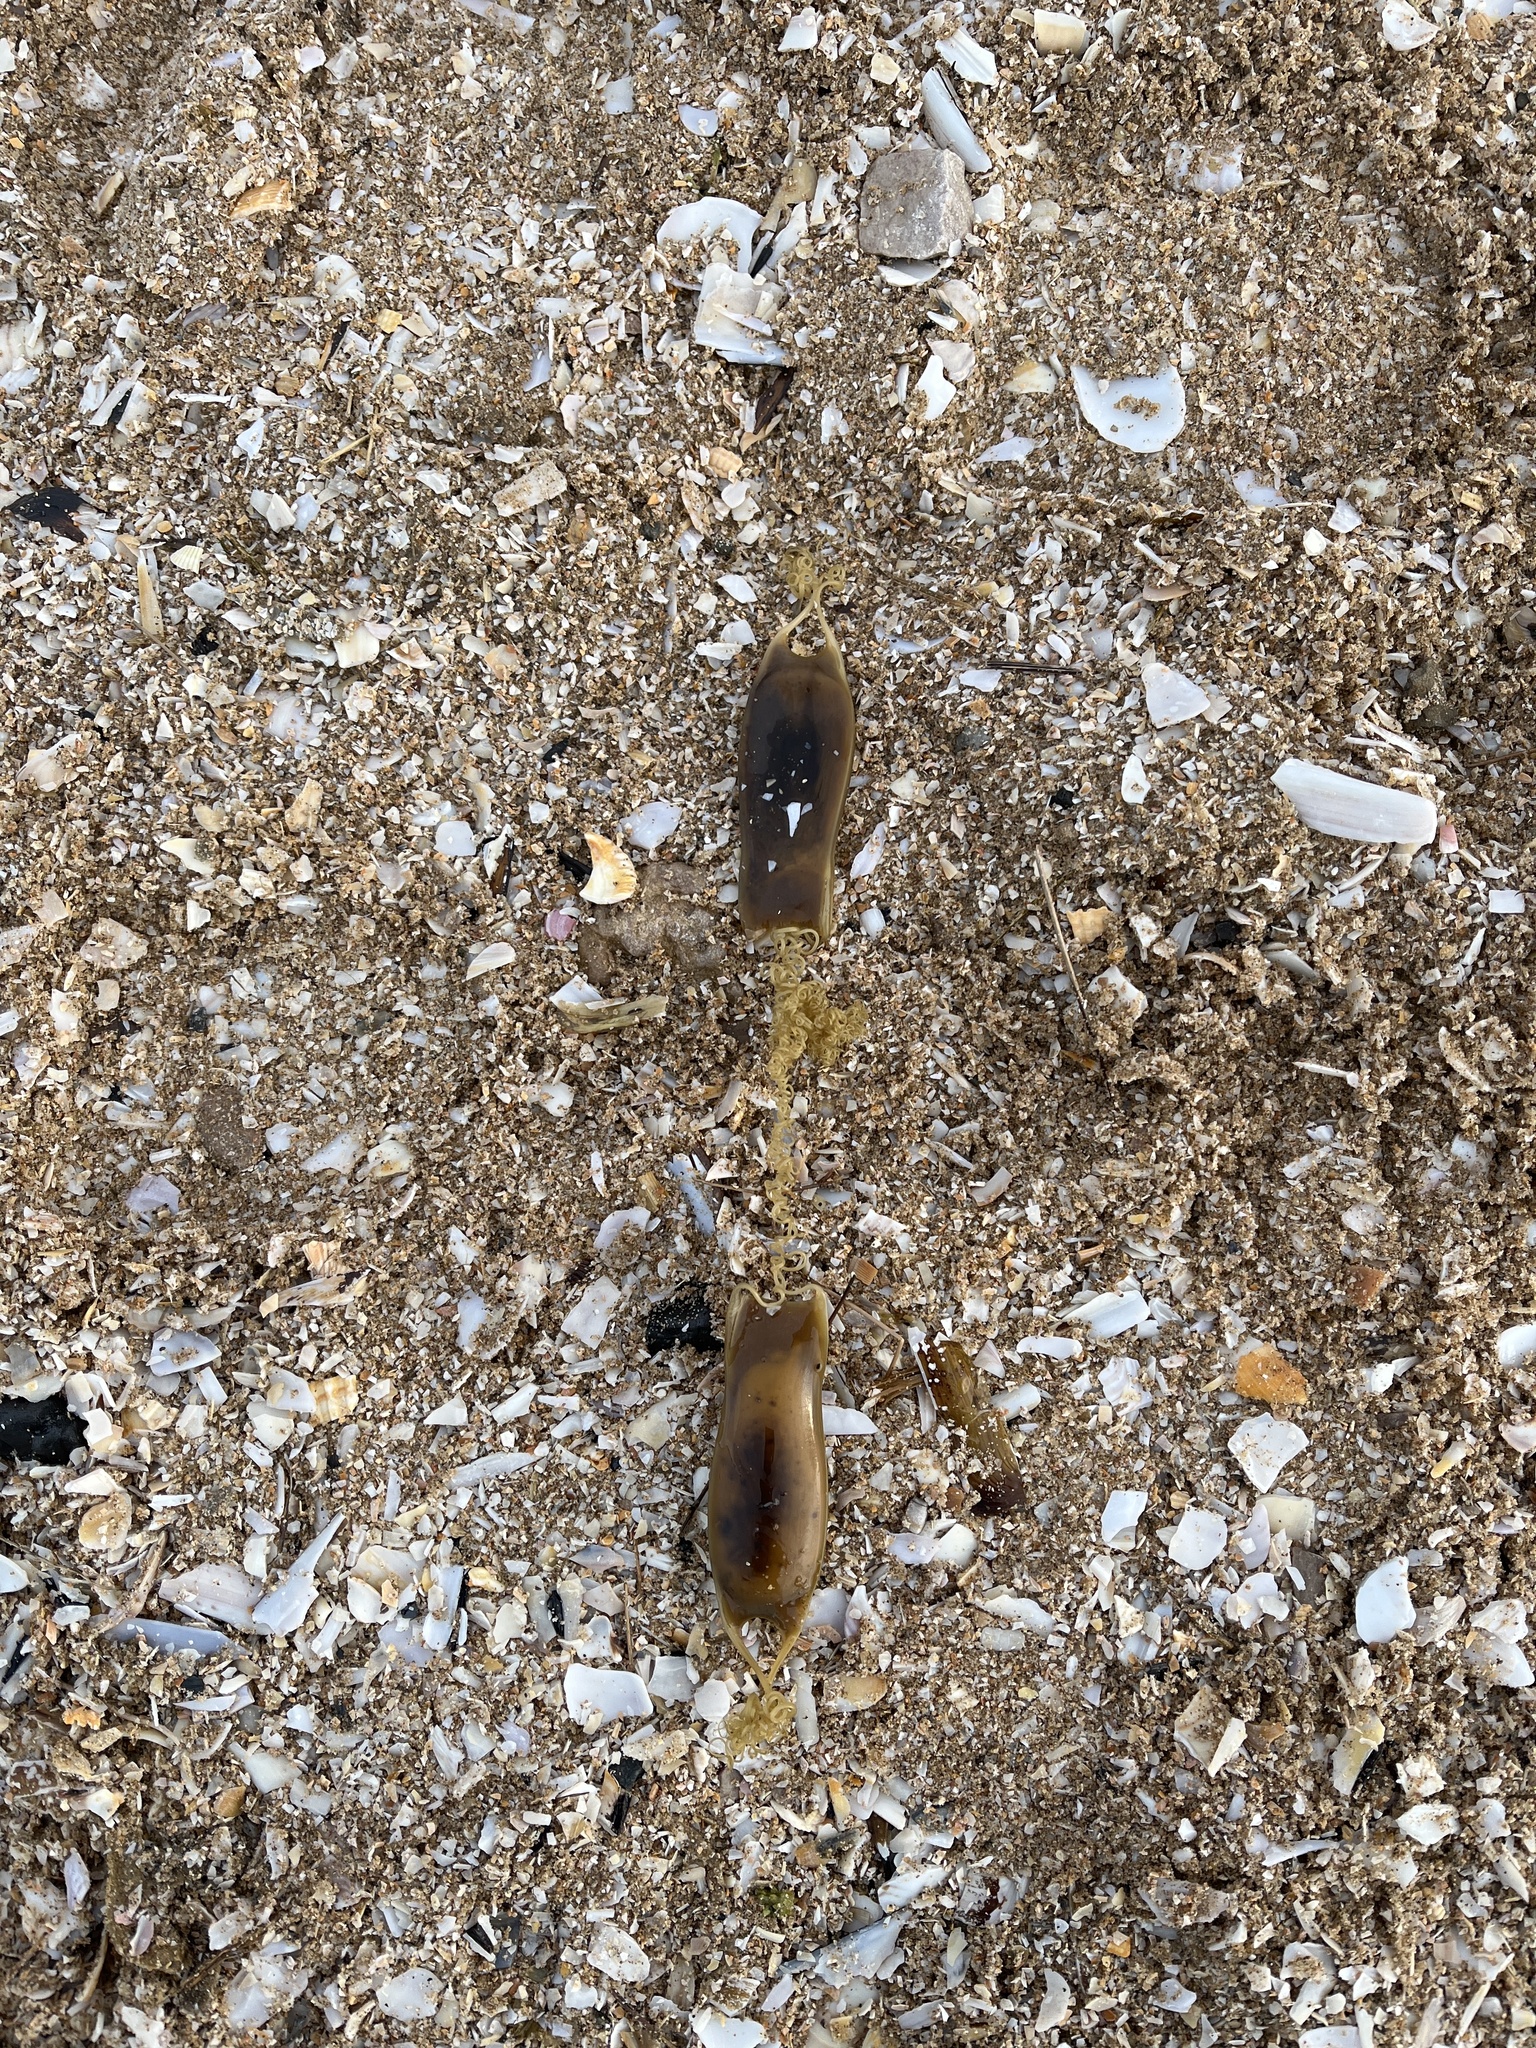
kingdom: Animalia
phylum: Chordata
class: Elasmobranchii
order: Carcharhiniformes
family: Scyliorhinidae
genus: Scyliorhinus
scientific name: Scyliorhinus canicula
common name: Lesser spotted dogfish
